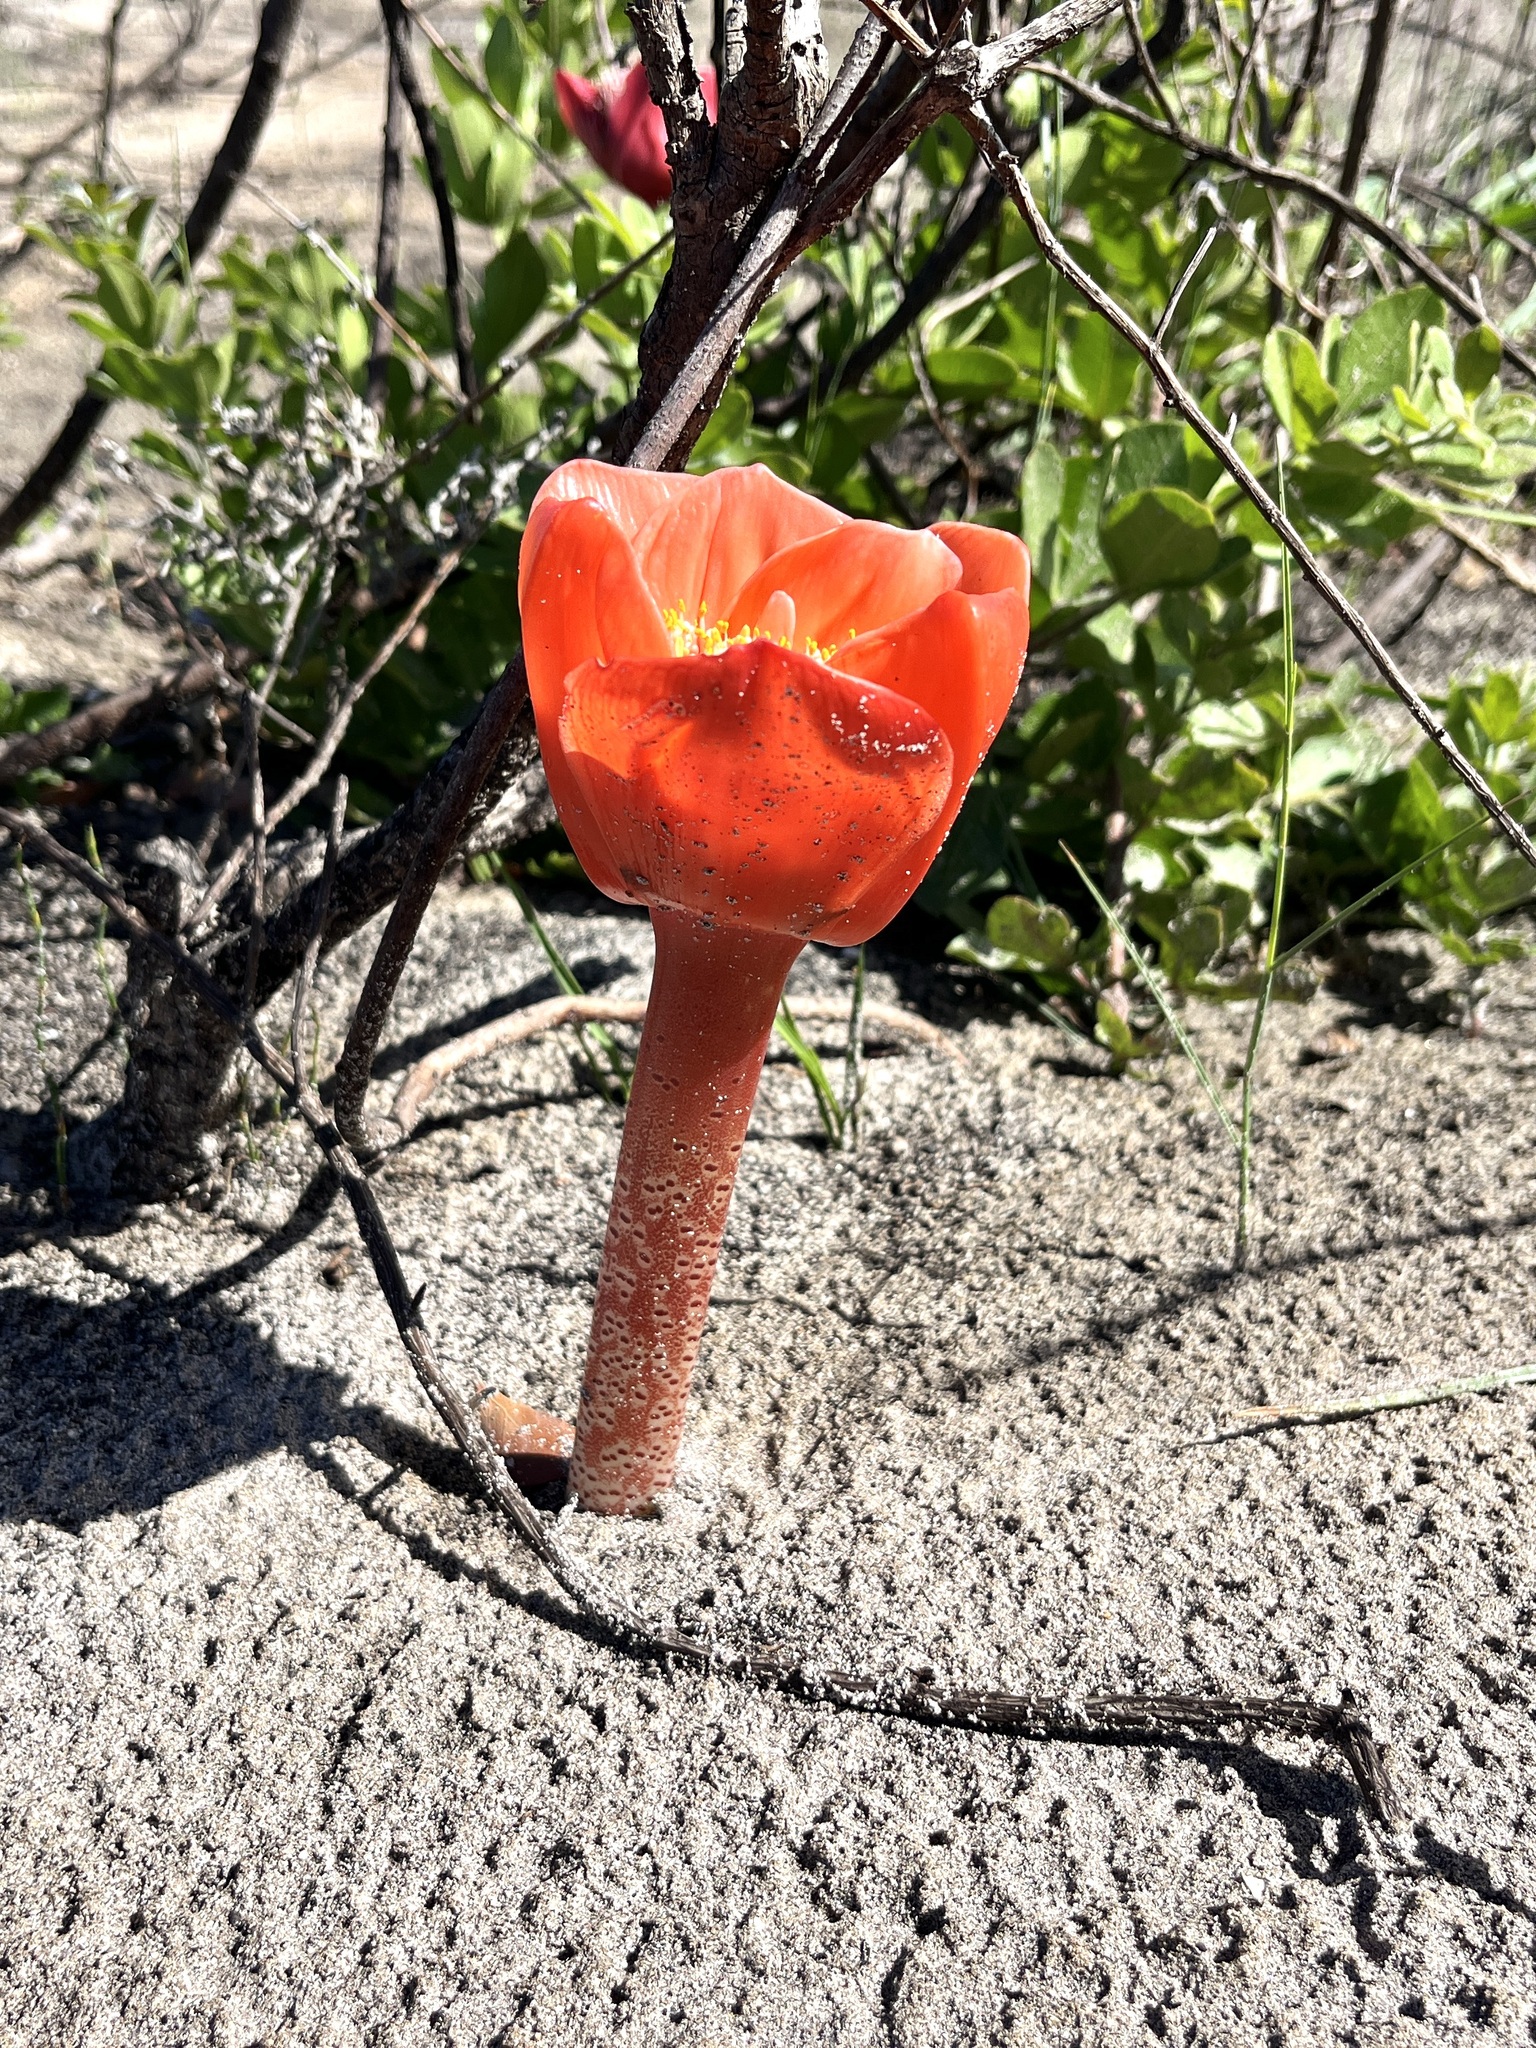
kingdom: Plantae
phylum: Tracheophyta
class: Liliopsida
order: Asparagales
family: Amaryllidaceae
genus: Haemanthus
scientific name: Haemanthus coccineus
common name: Cape-tulip
